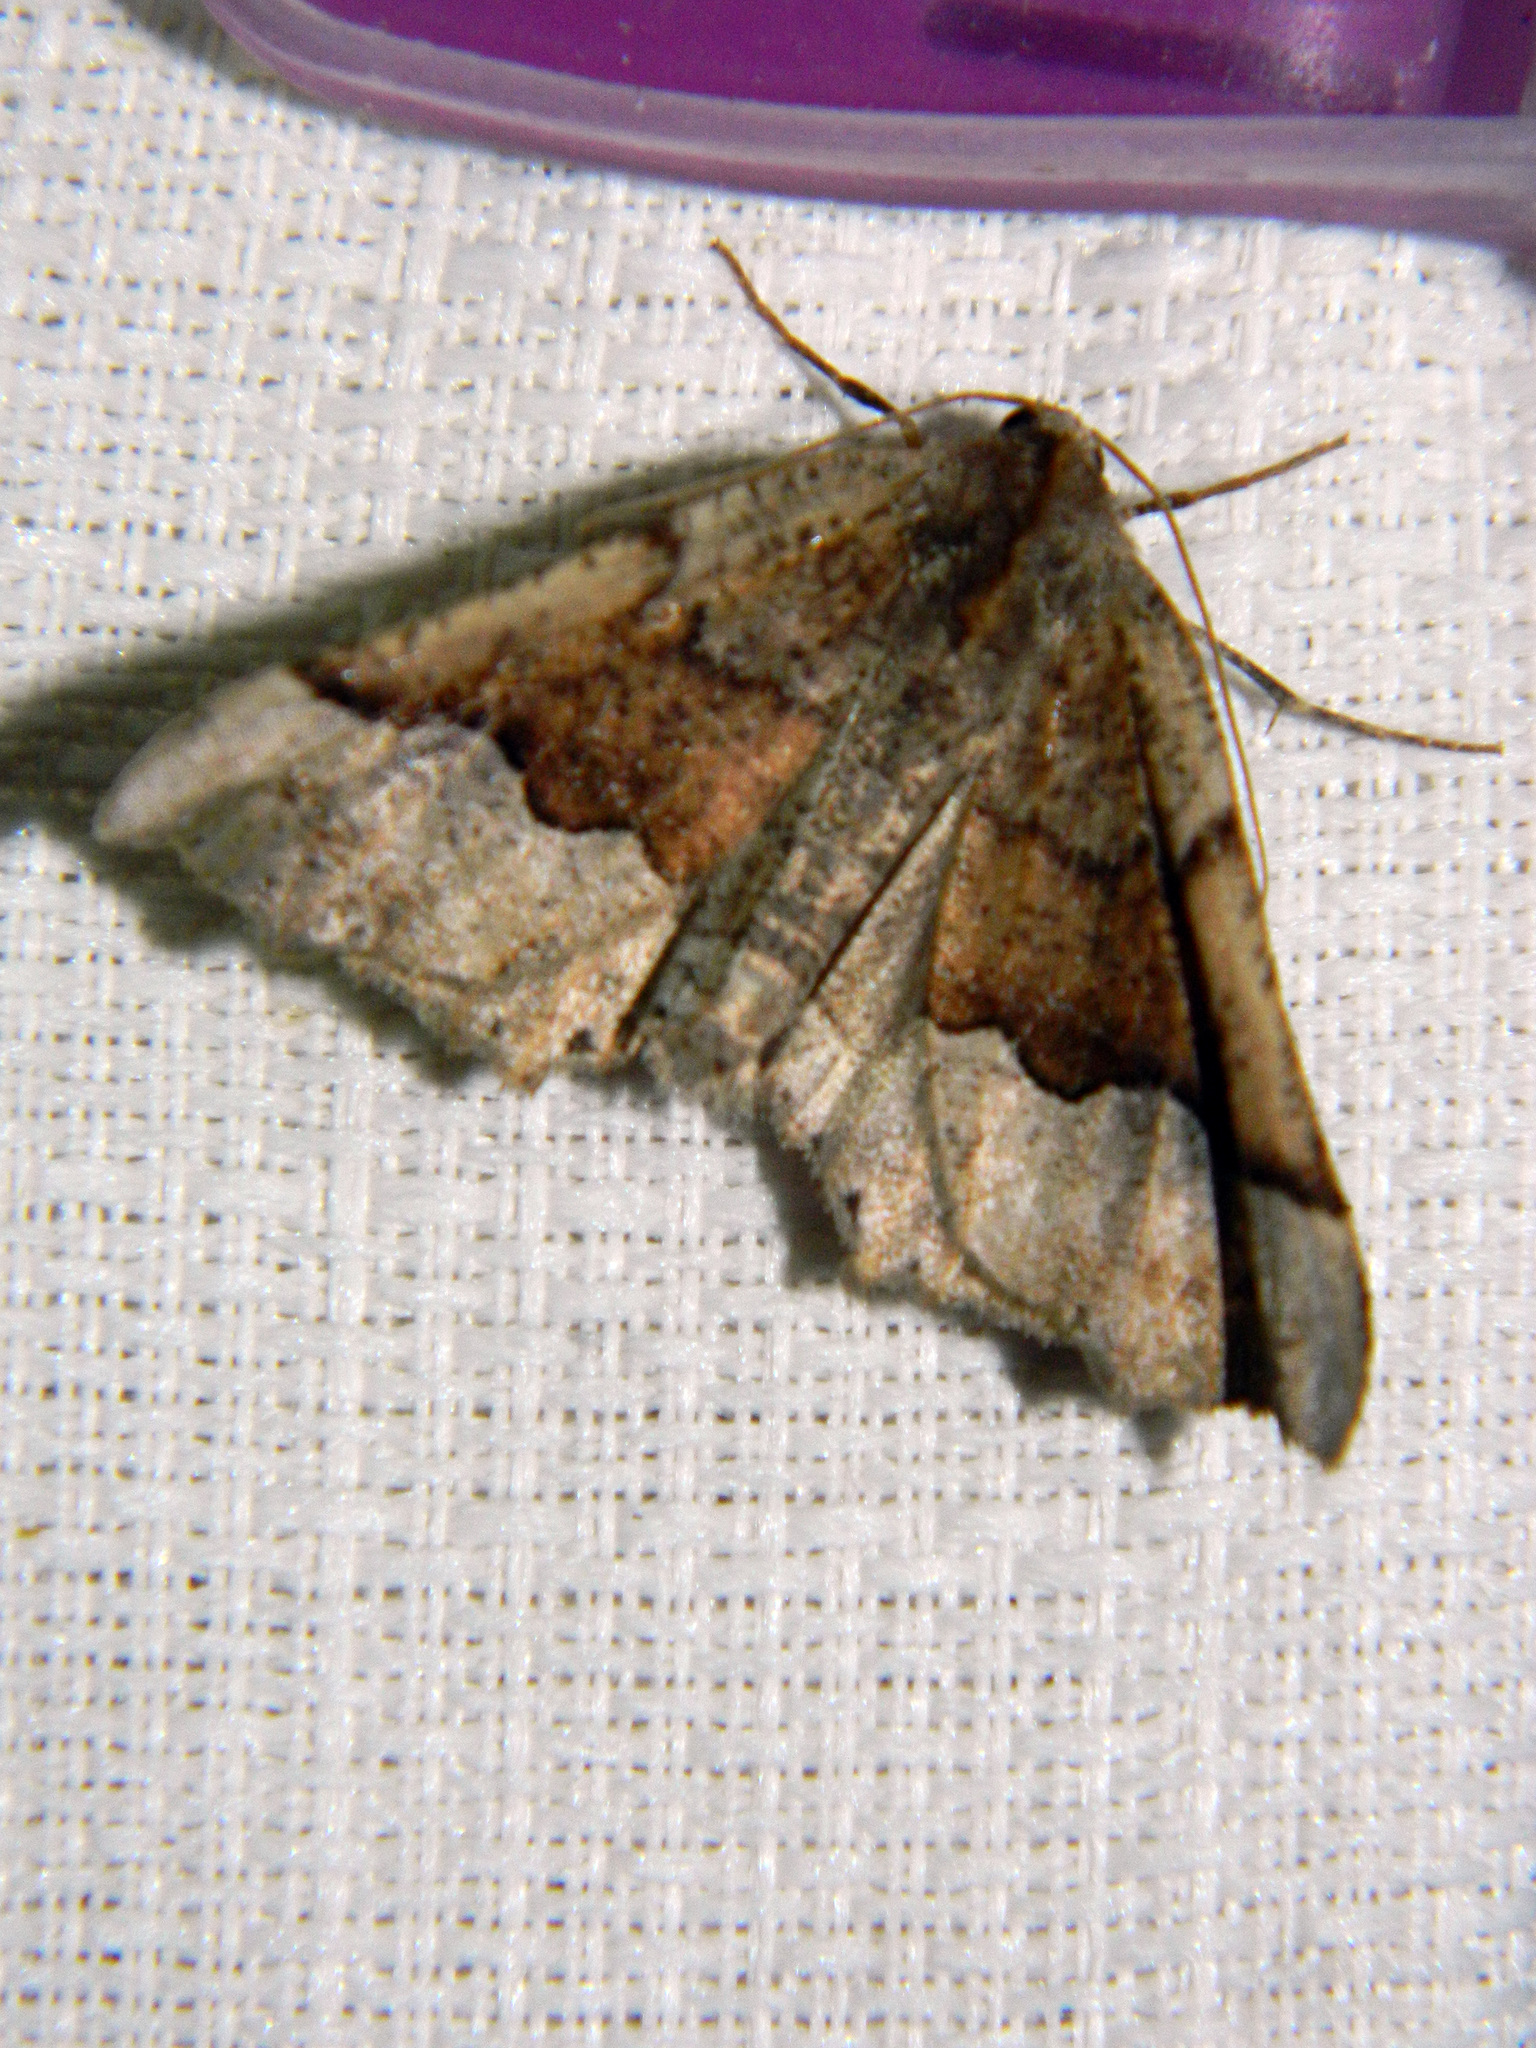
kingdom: Animalia
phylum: Arthropoda
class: Insecta
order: Lepidoptera
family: Geometridae
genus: Pero
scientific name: Pero morrisonaria
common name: Morrison's pero
